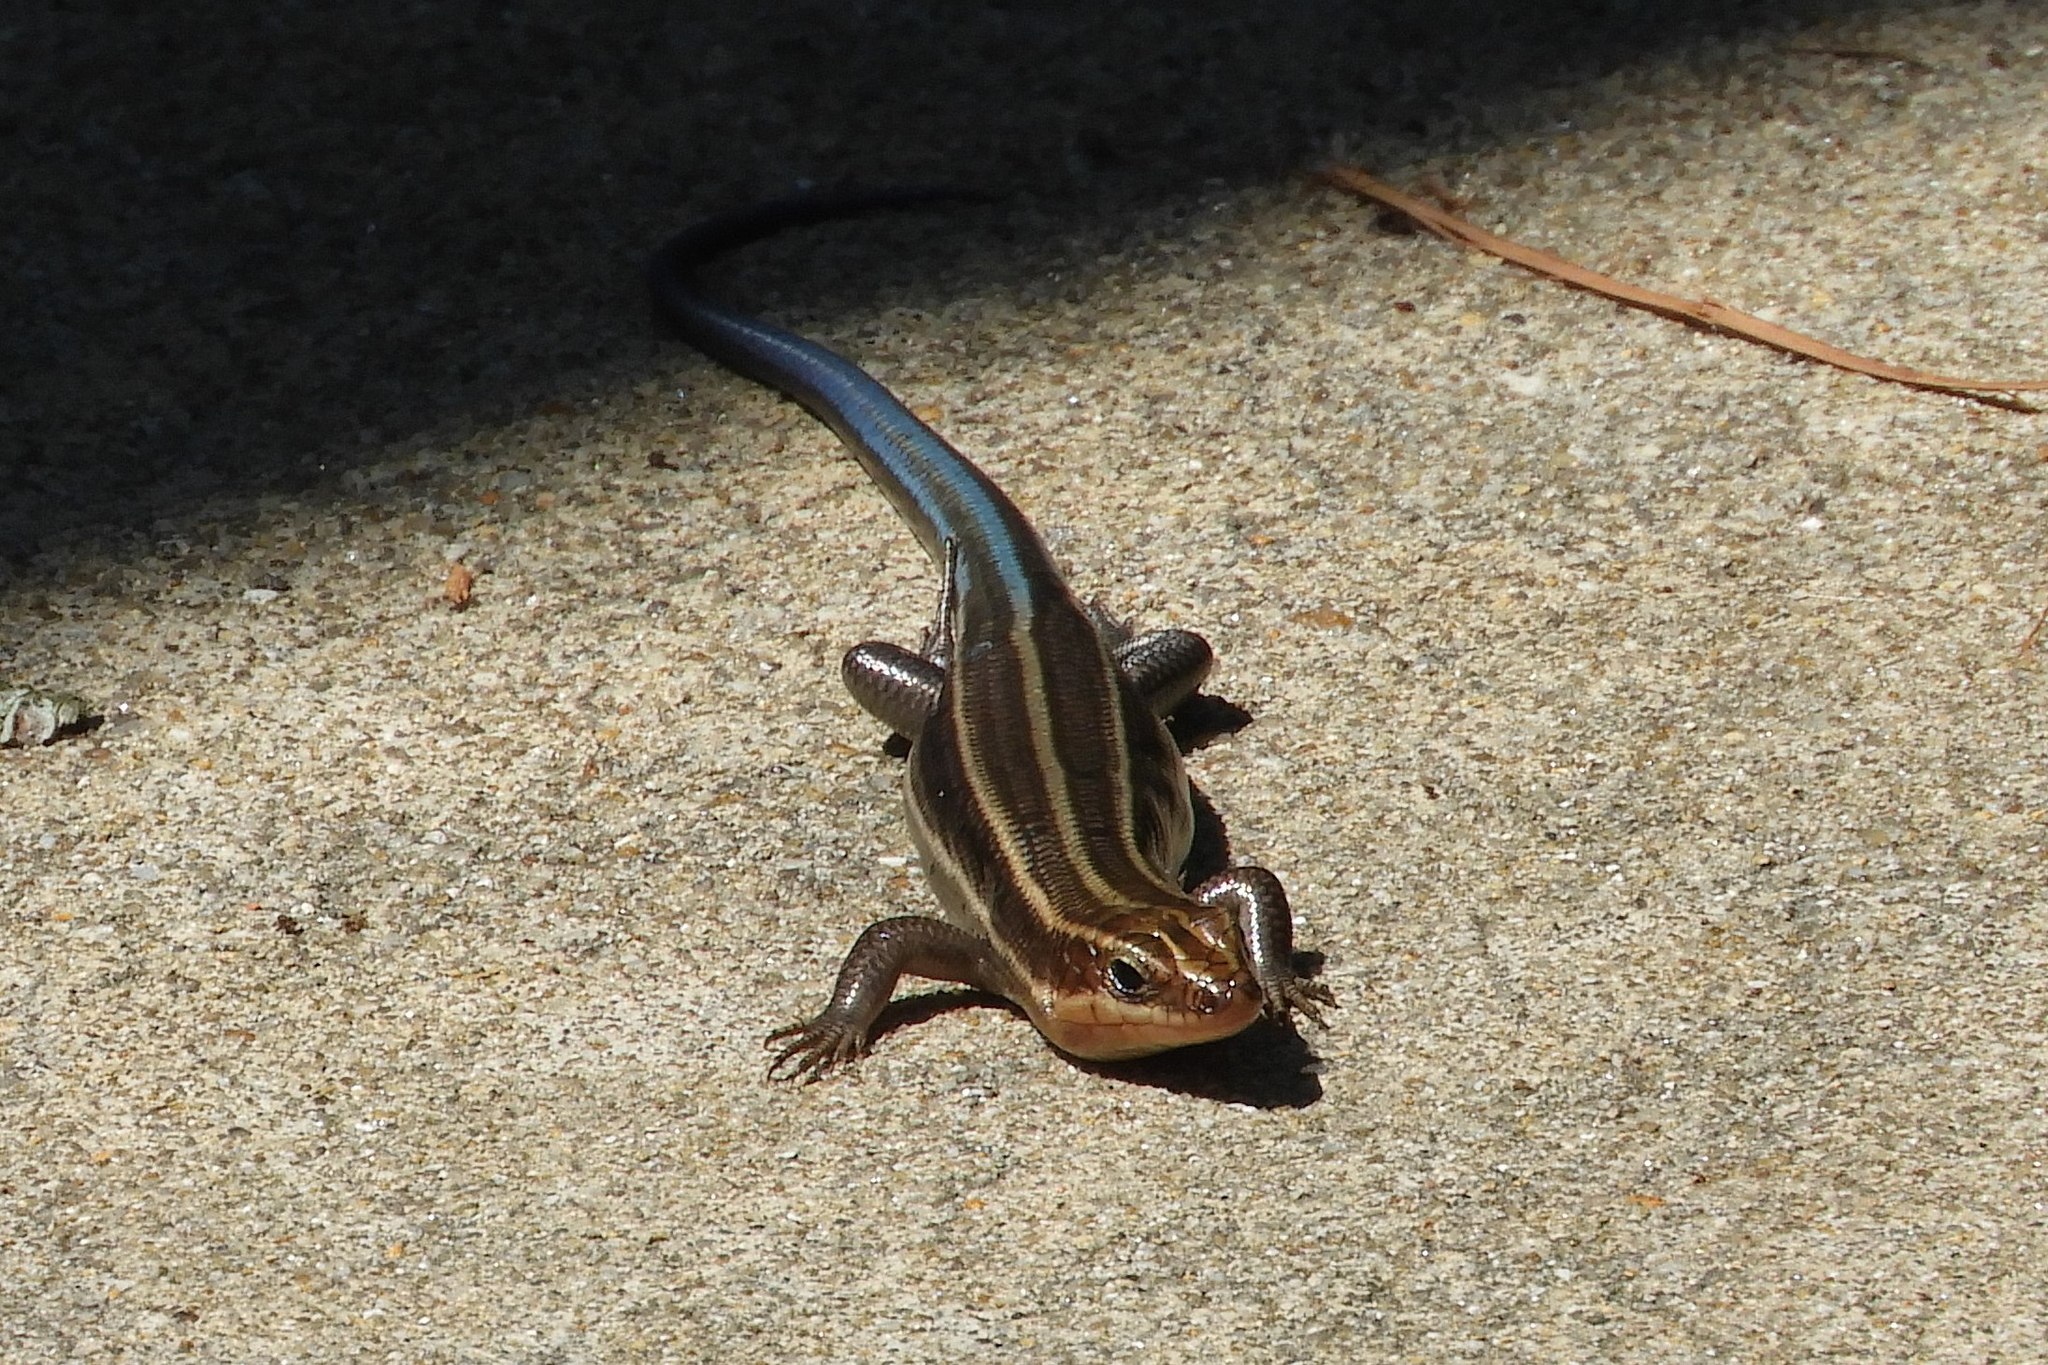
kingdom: Animalia
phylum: Chordata
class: Squamata
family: Scincidae
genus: Plestiodon
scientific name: Plestiodon fasciatus
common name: Five-lined skink
